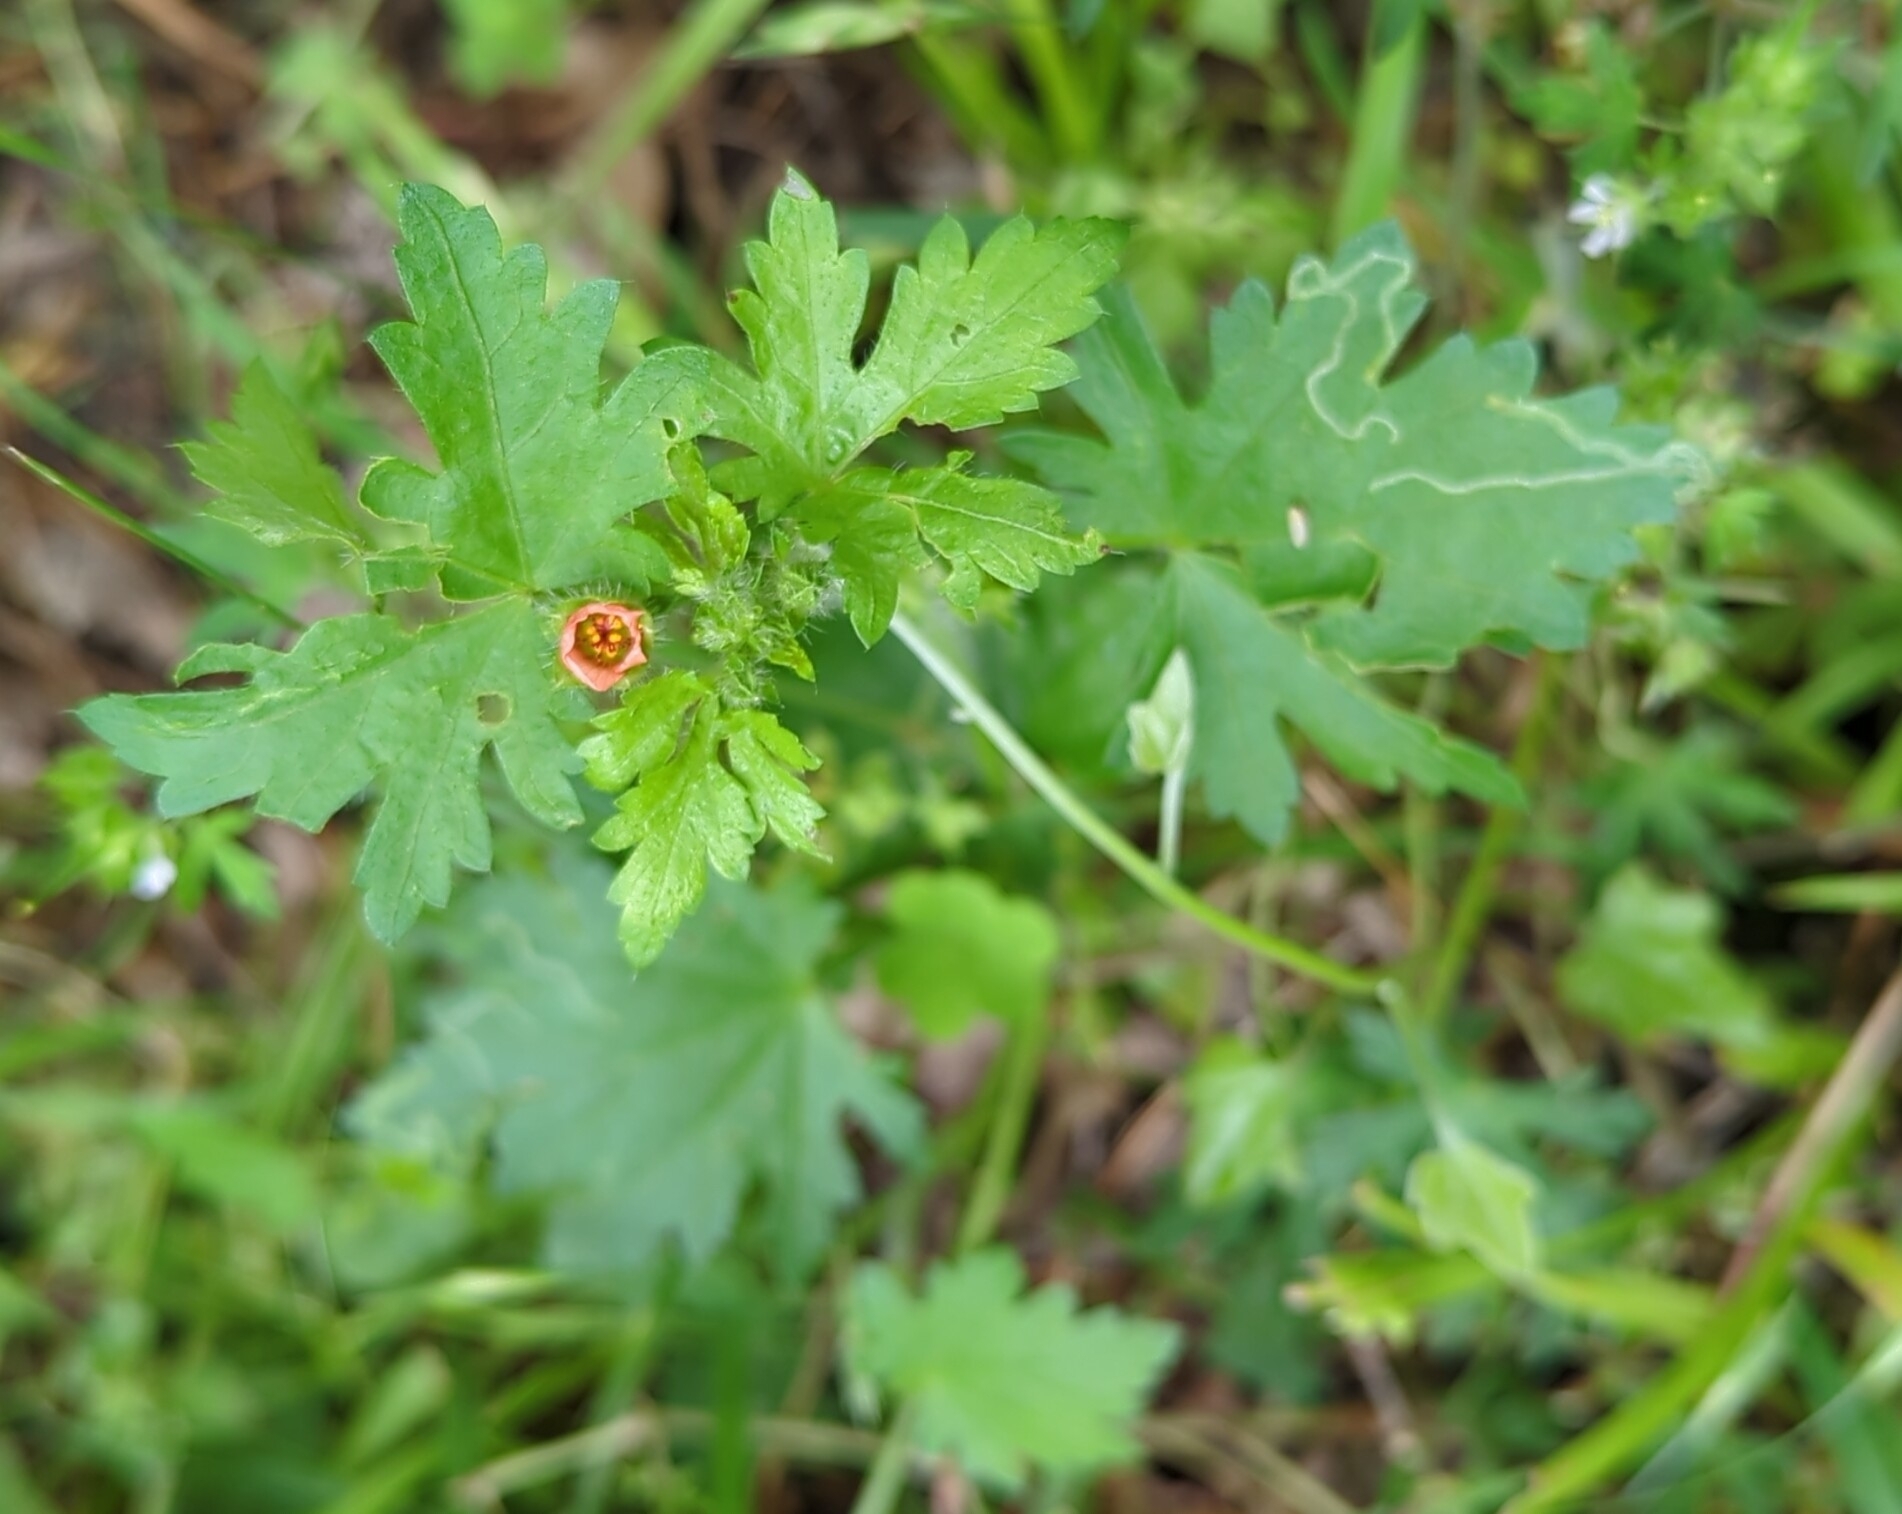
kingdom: Plantae
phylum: Tracheophyta
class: Magnoliopsida
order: Malvales
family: Malvaceae
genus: Modiola
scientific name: Modiola caroliniana
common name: Carolina bristlemallow
